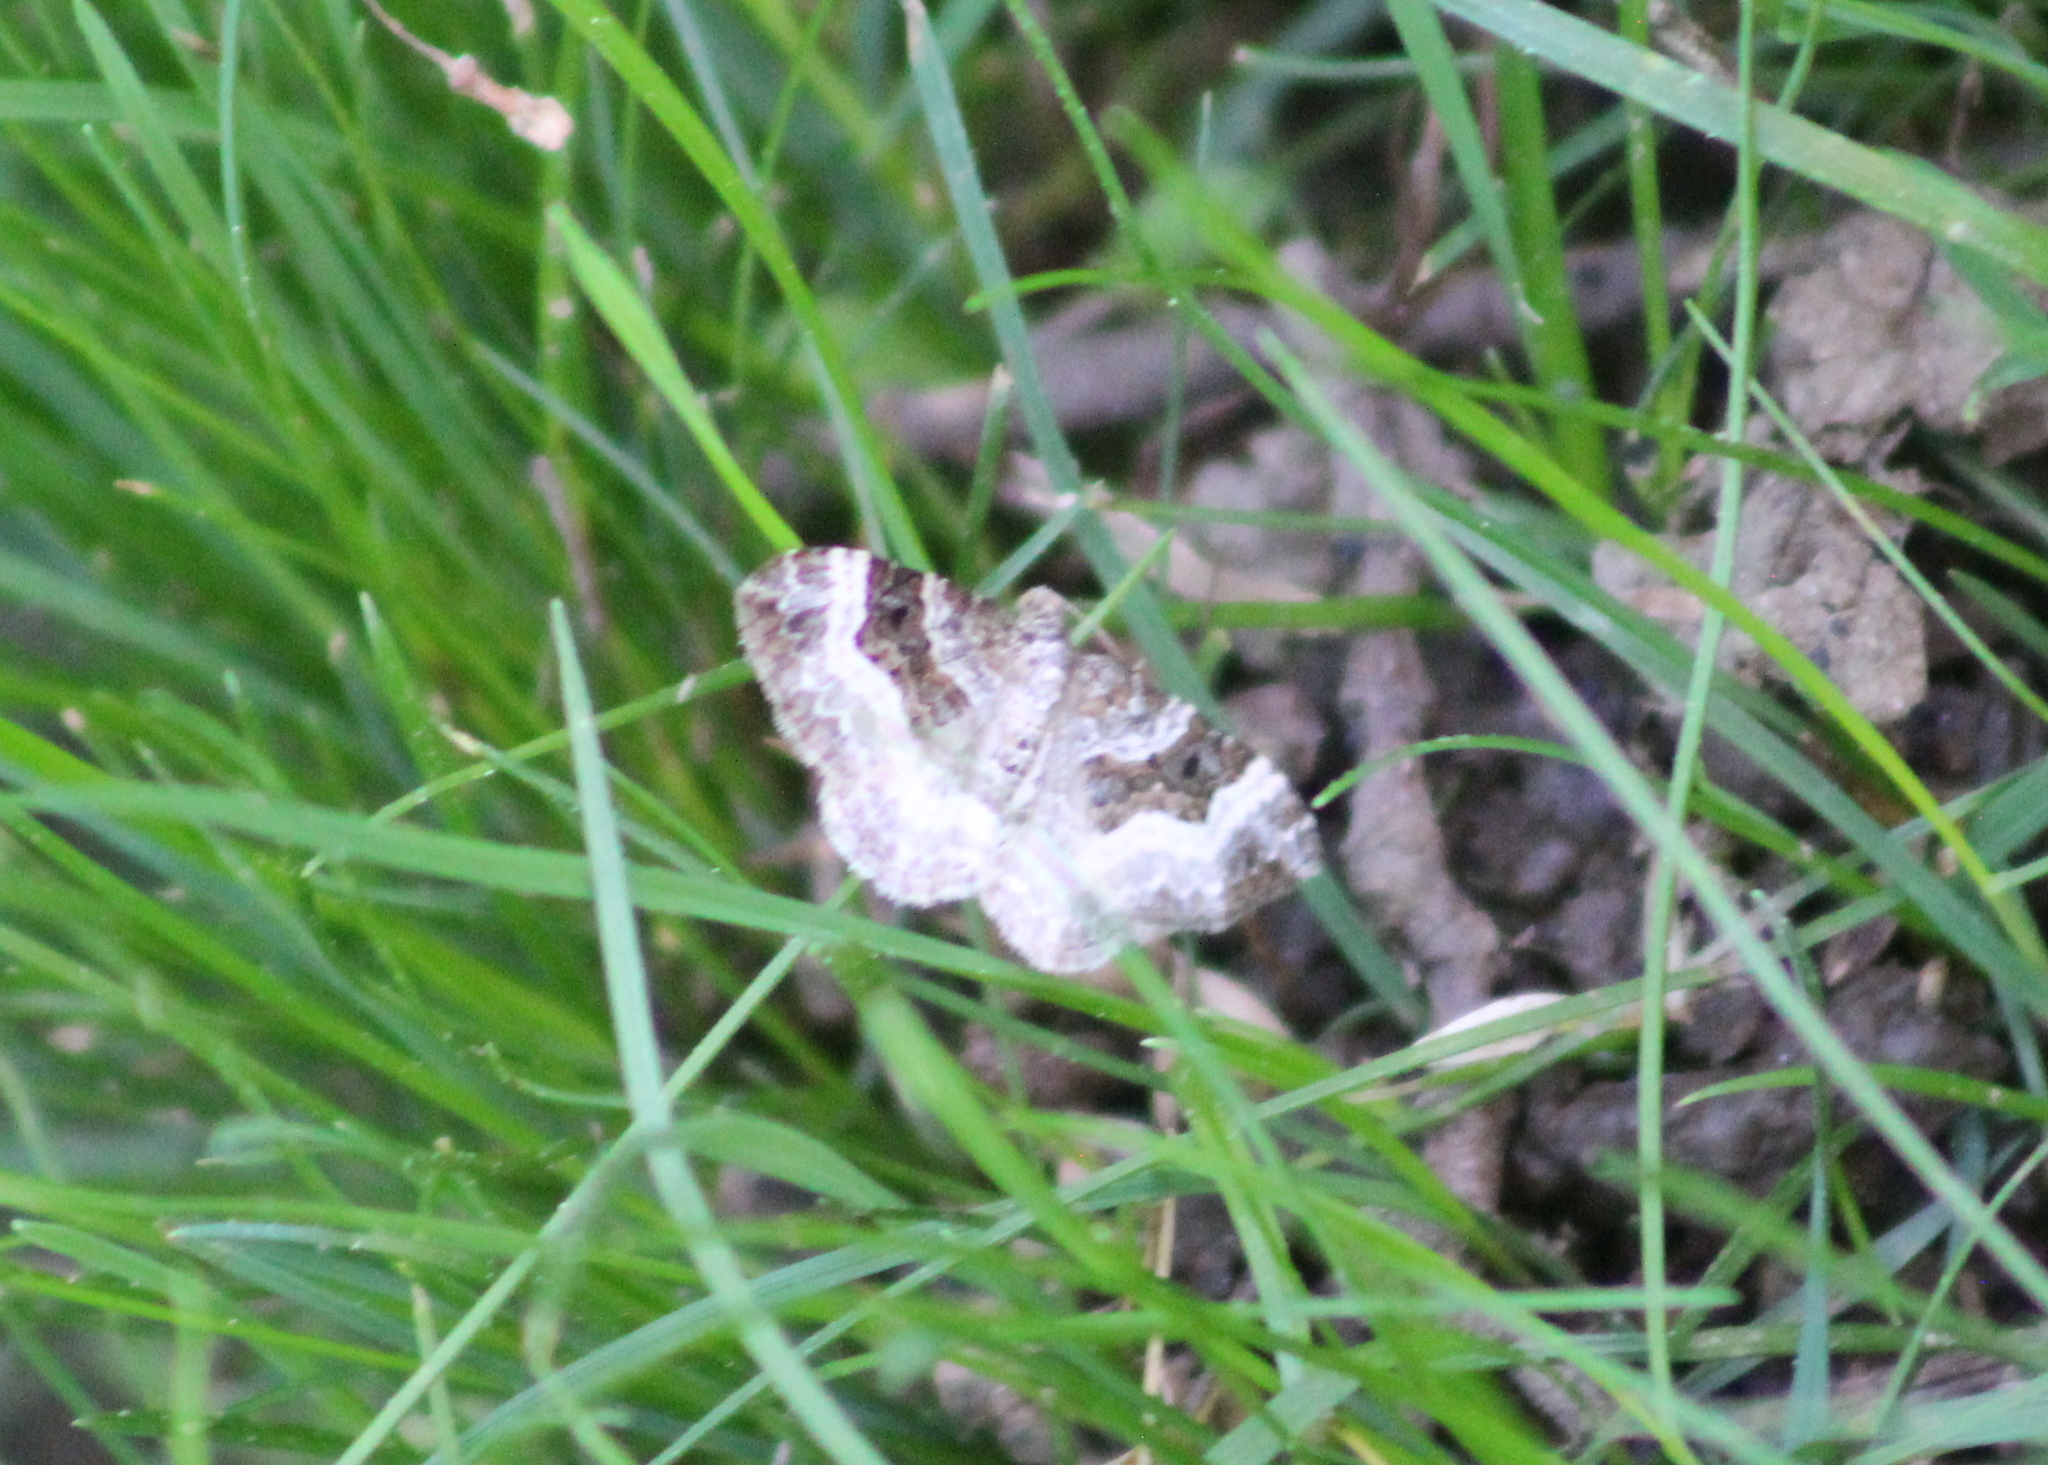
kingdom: Animalia
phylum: Arthropoda
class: Insecta
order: Lepidoptera
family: Geometridae
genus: Epirrhoe
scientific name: Epirrhoe alternata
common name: Common carpet
